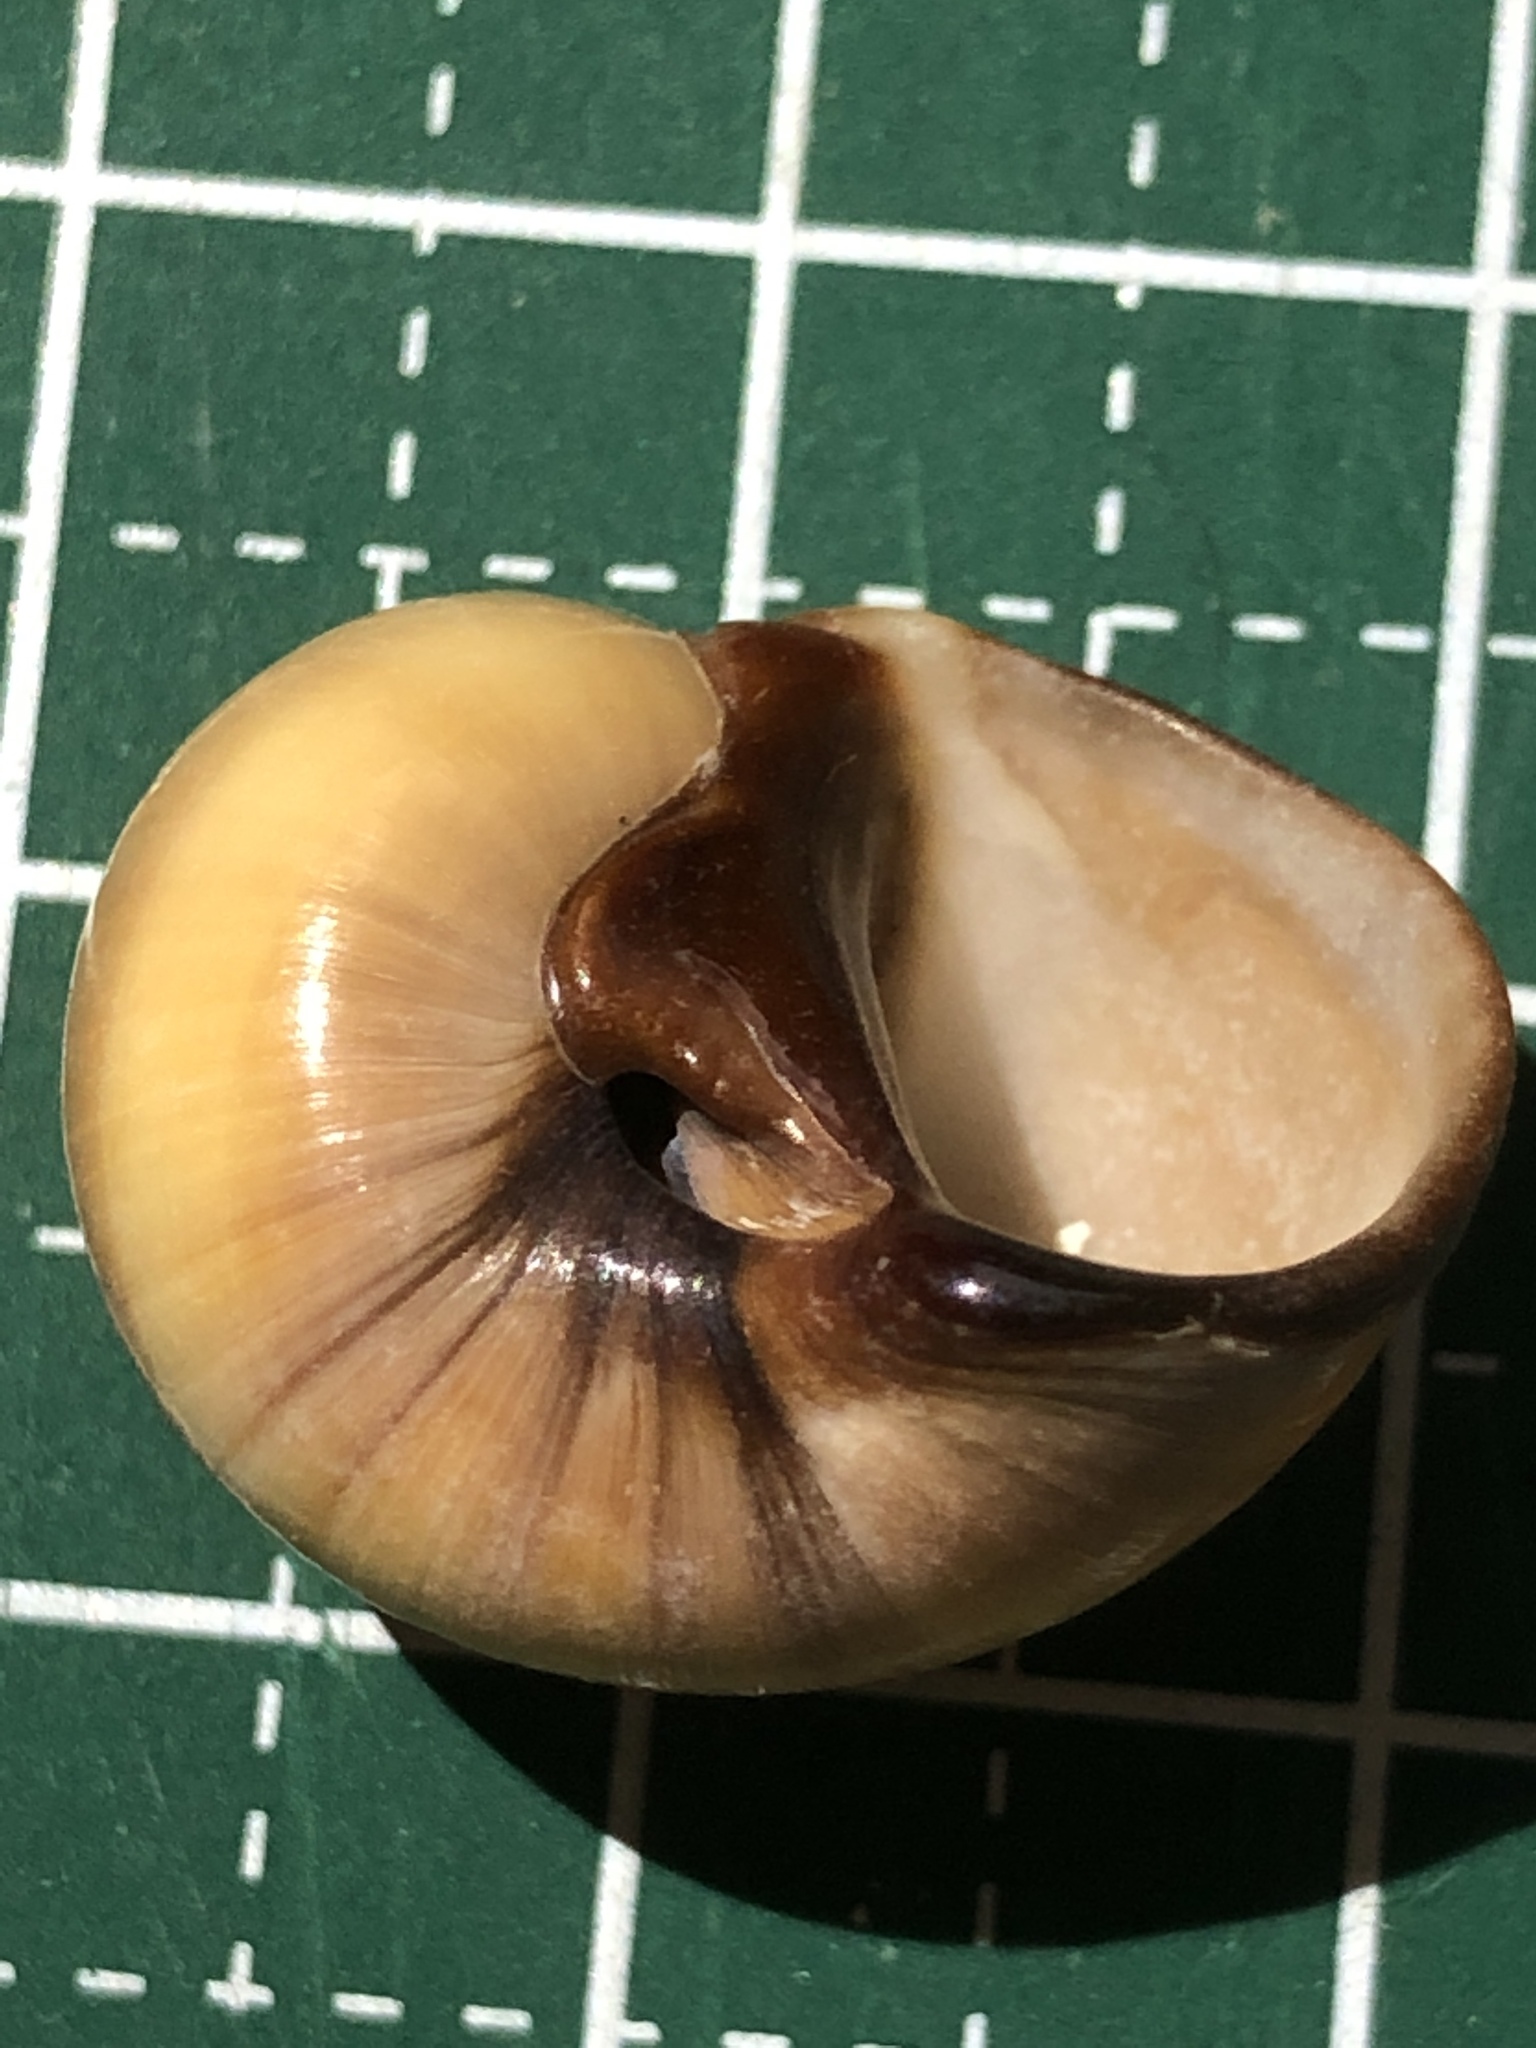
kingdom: Animalia
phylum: Mollusca
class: Gastropoda
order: Littorinimorpha
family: Naticidae
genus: Natica
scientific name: Natica fasciata
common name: Solid moonsnail
